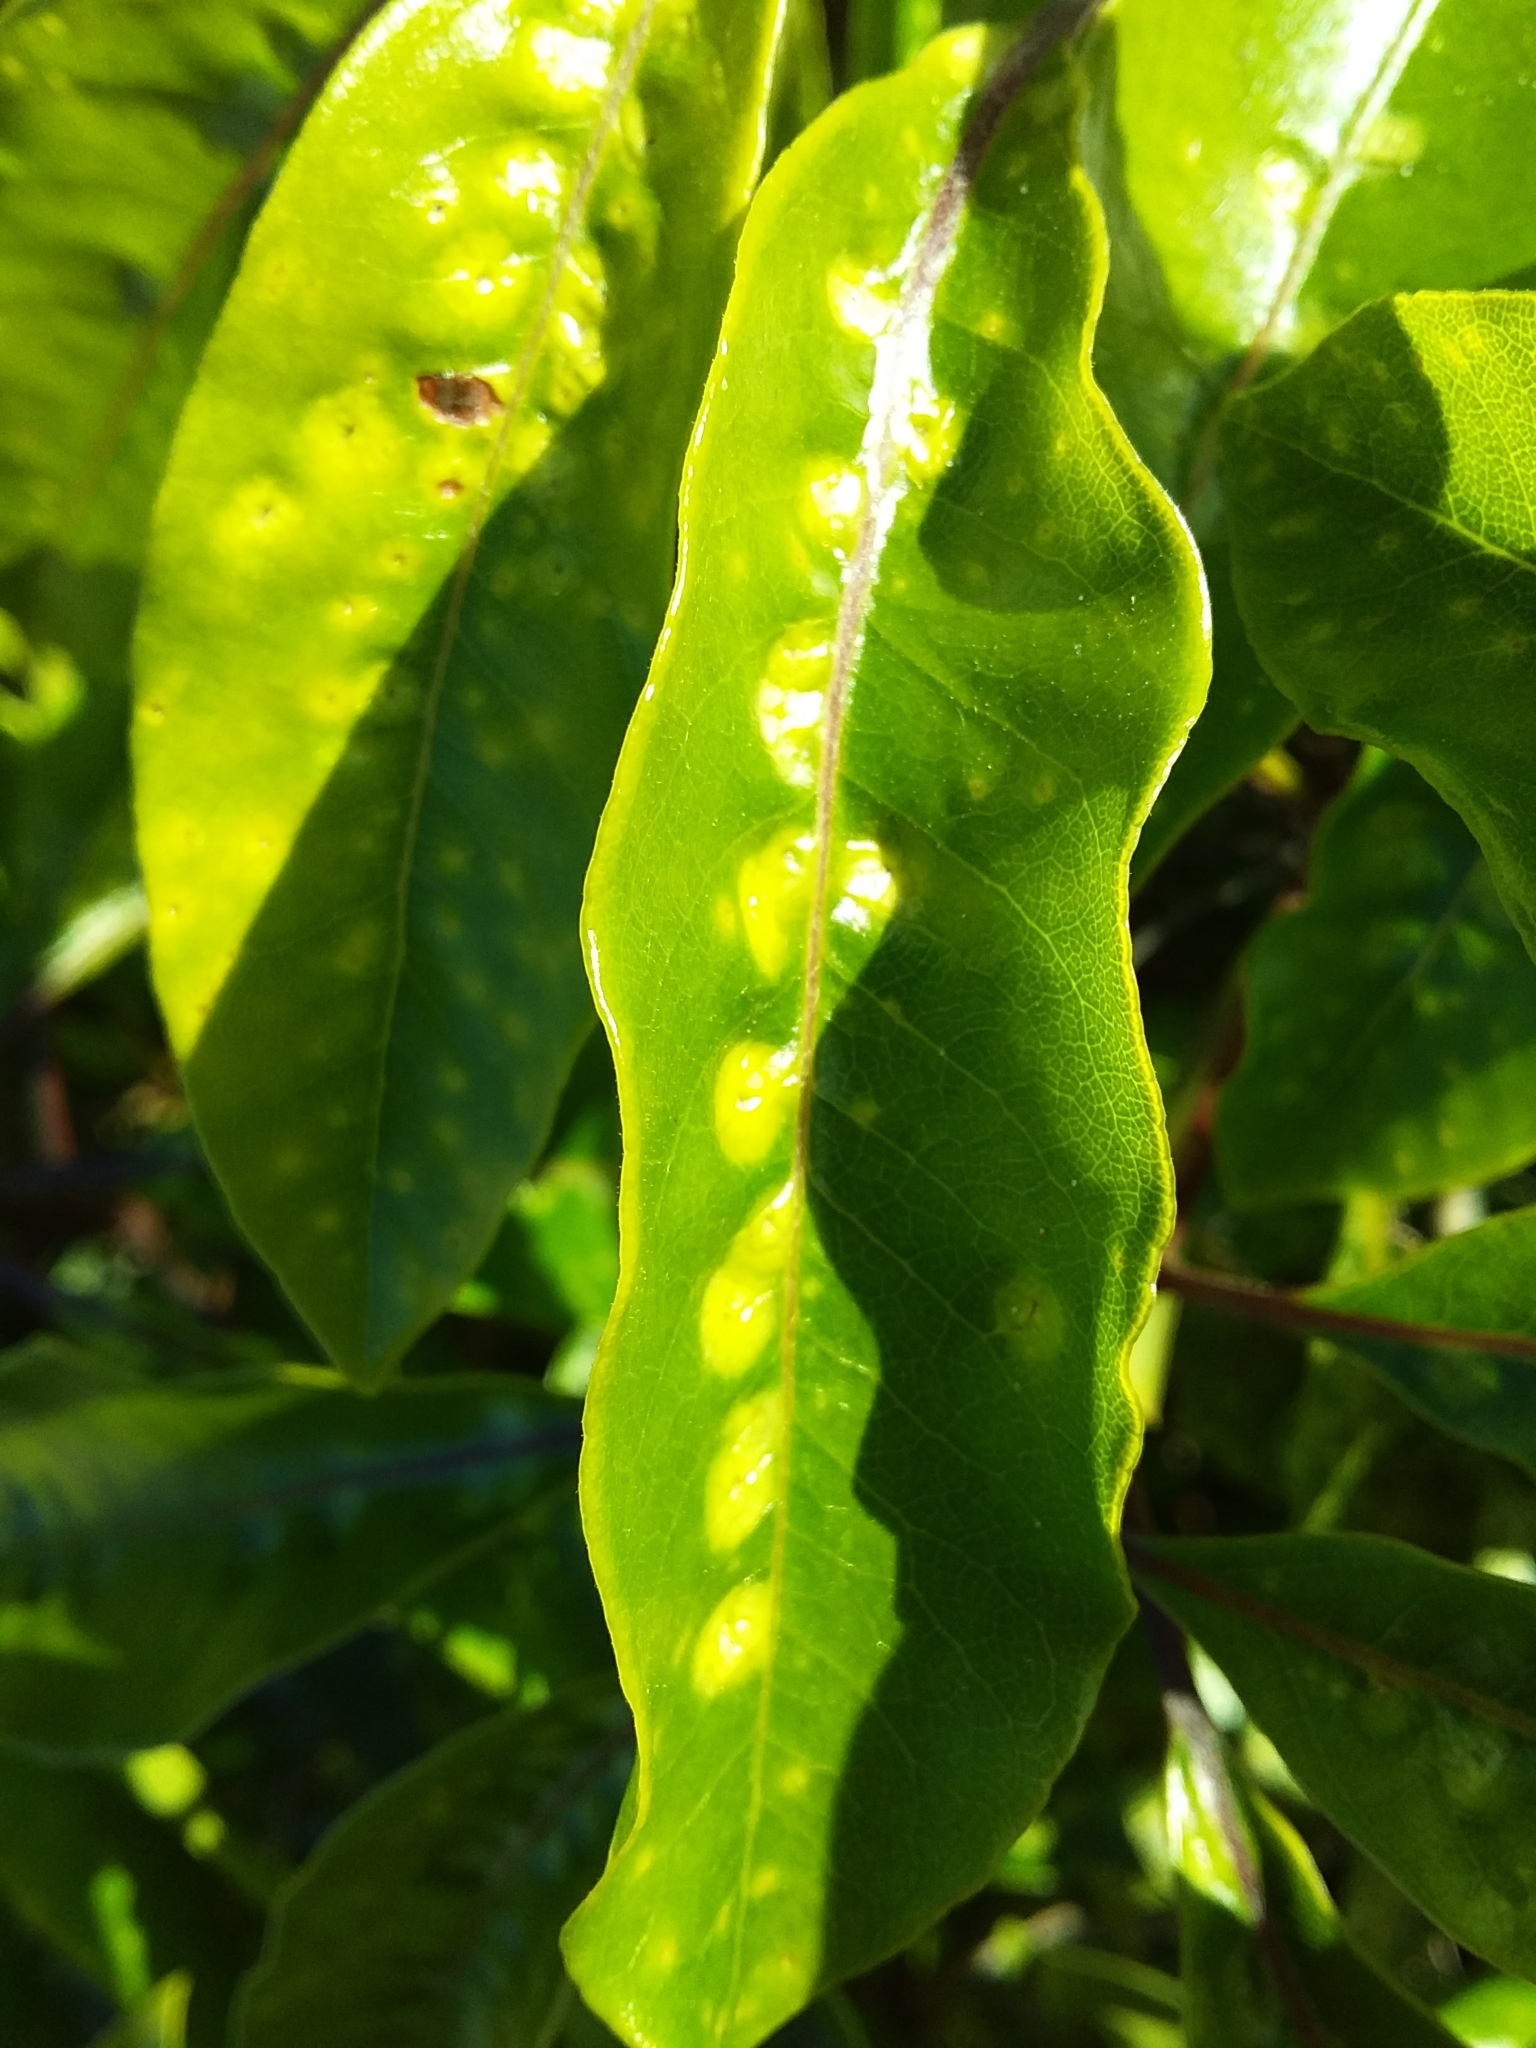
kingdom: Animalia
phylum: Arthropoda
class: Insecta
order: Diptera
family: Agromyzidae
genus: Phytoliriomyza
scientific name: Phytoliriomyza pittosporophylli
